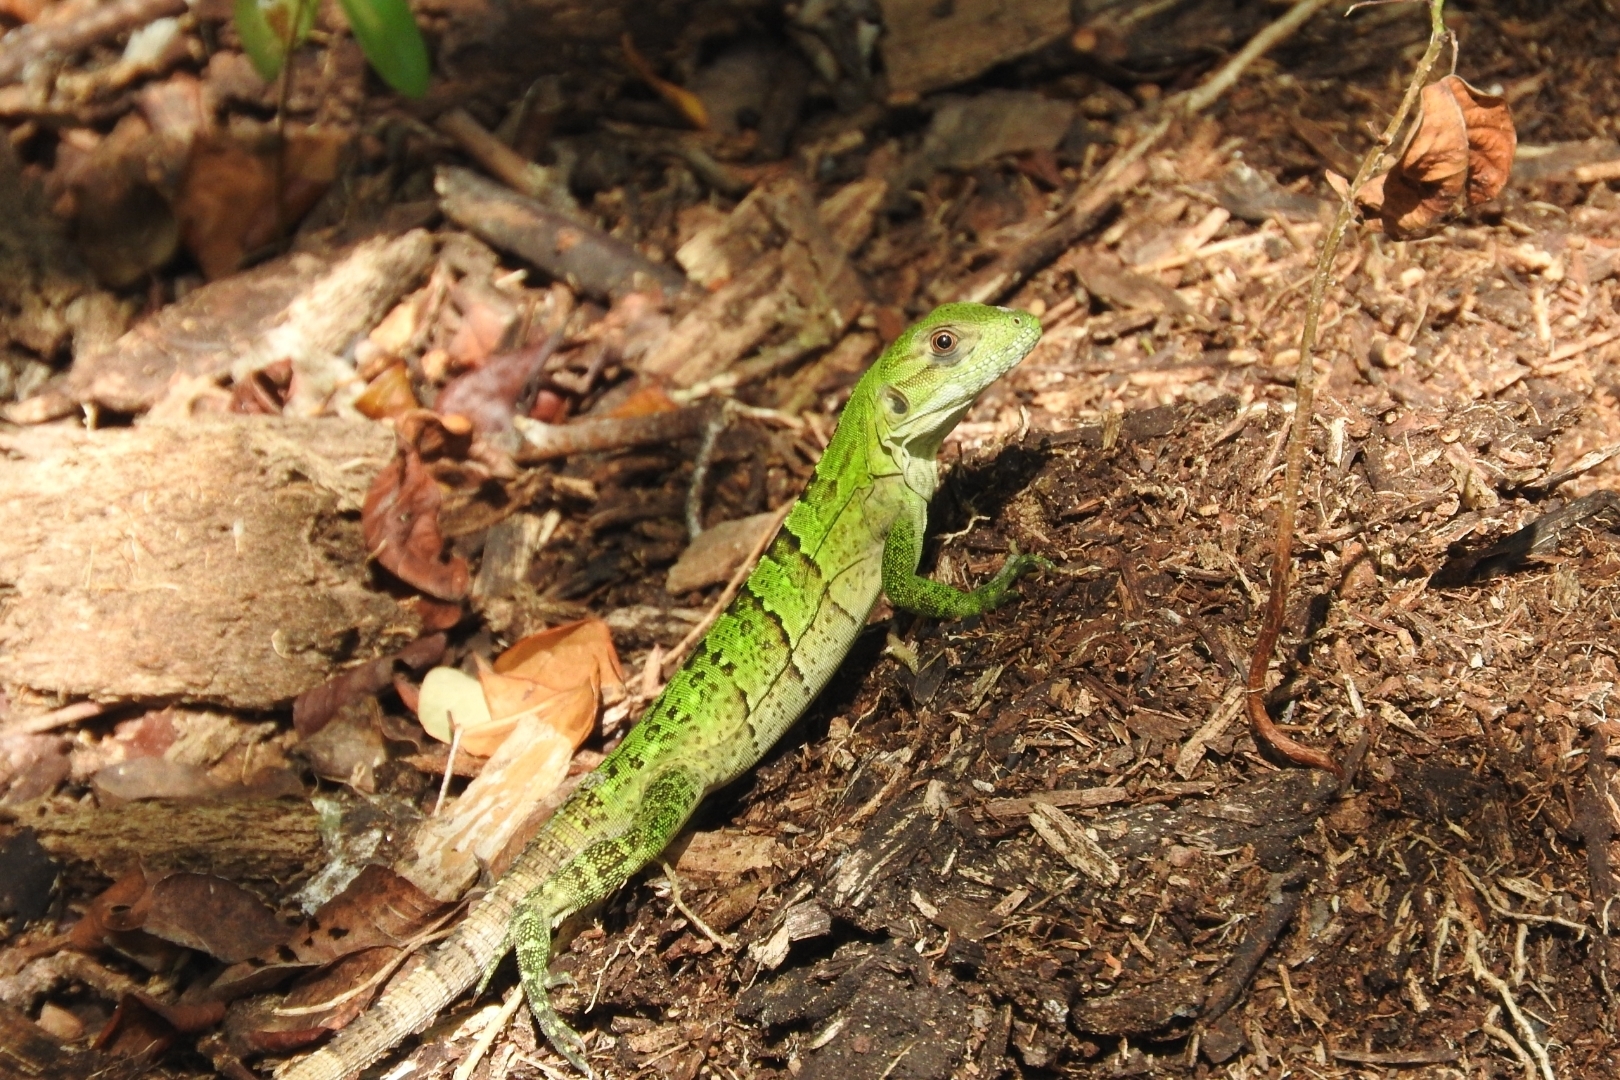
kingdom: Animalia
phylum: Chordata
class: Squamata
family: Iguanidae
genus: Ctenosaura
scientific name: Ctenosaura similis
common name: Black spiny-tailed iguana
